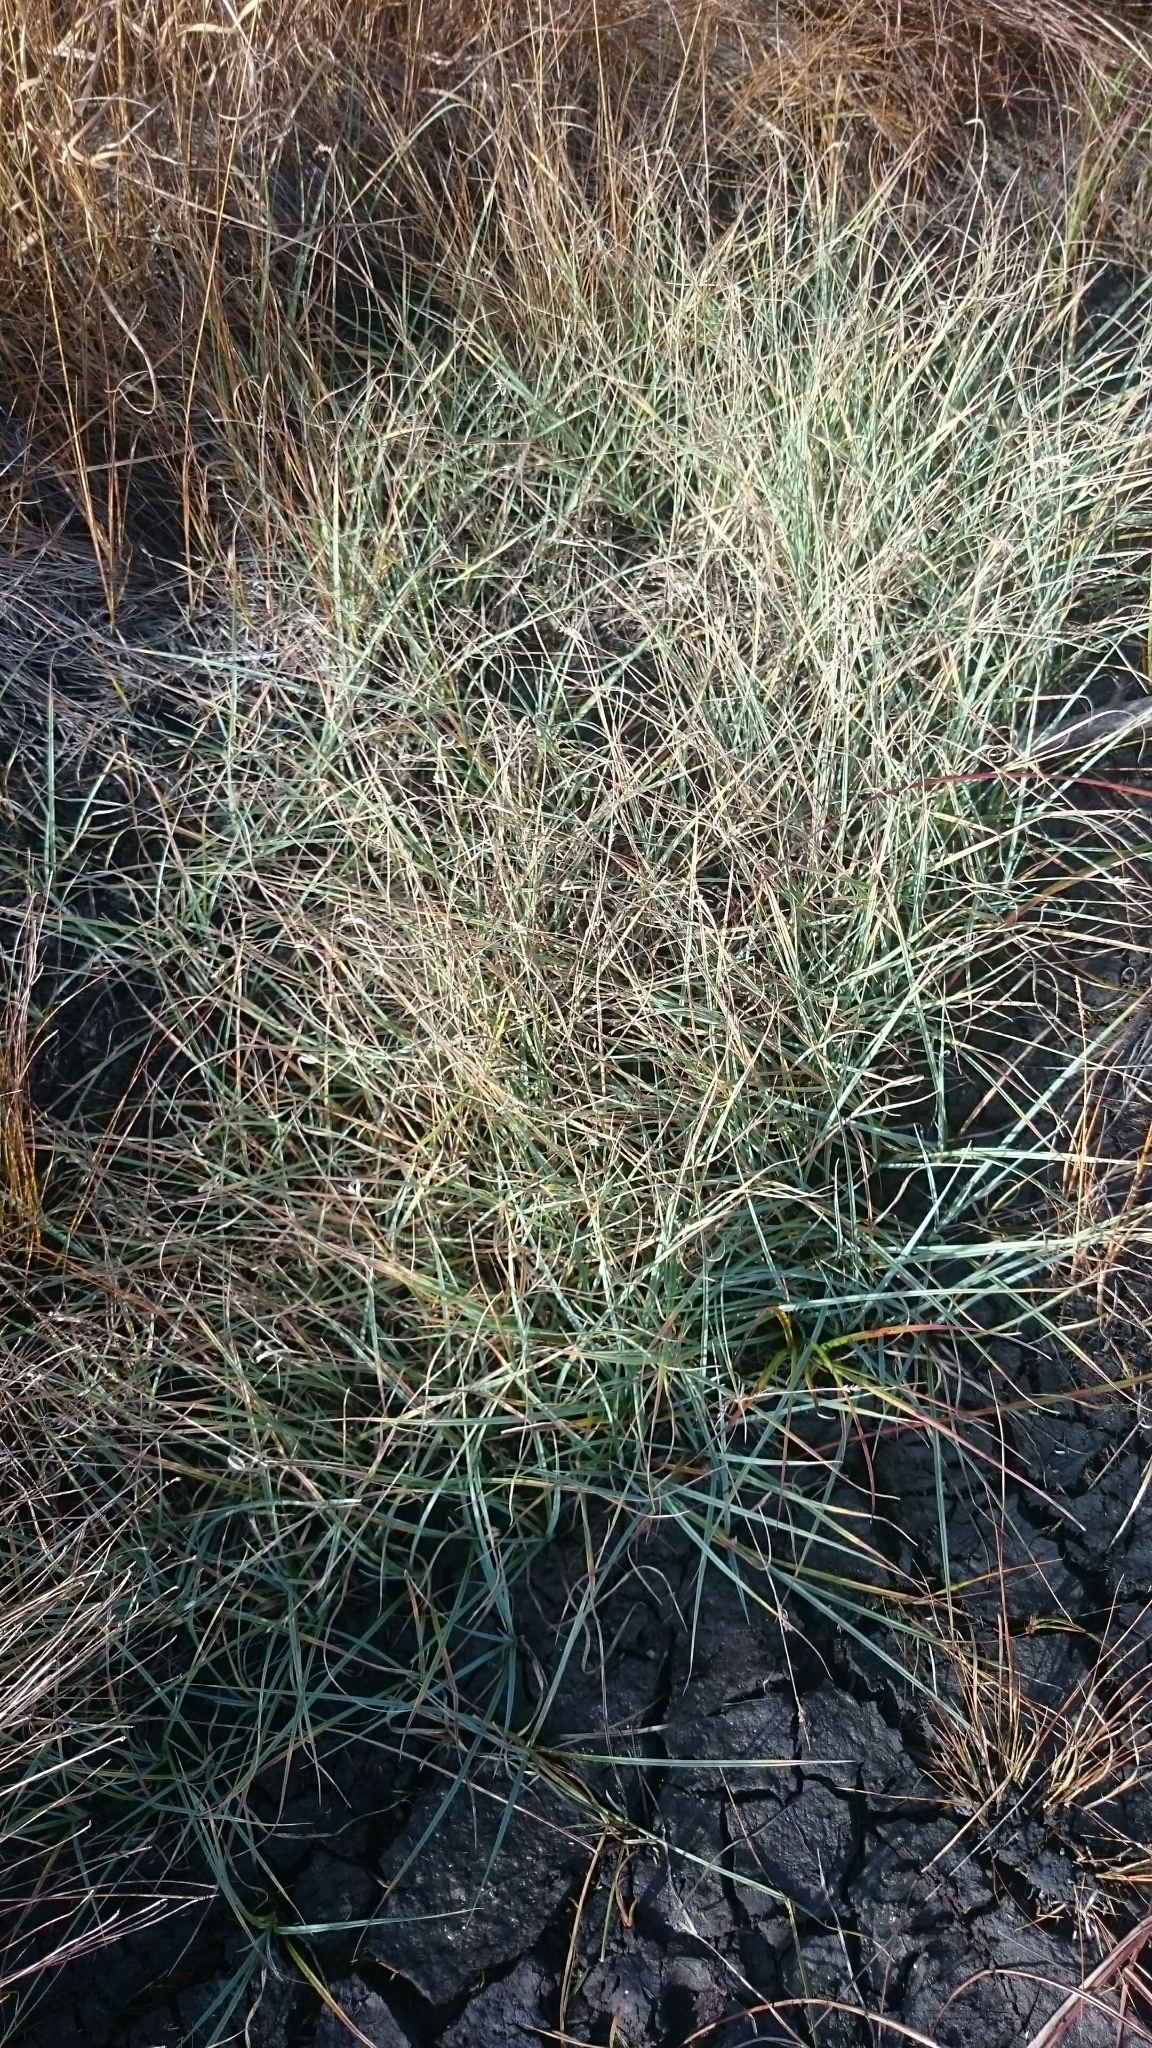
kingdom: Plantae
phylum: Tracheophyta
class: Liliopsida
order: Poales
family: Cyperaceae
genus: Carex
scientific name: Carex panicea
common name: Carnation sedge
